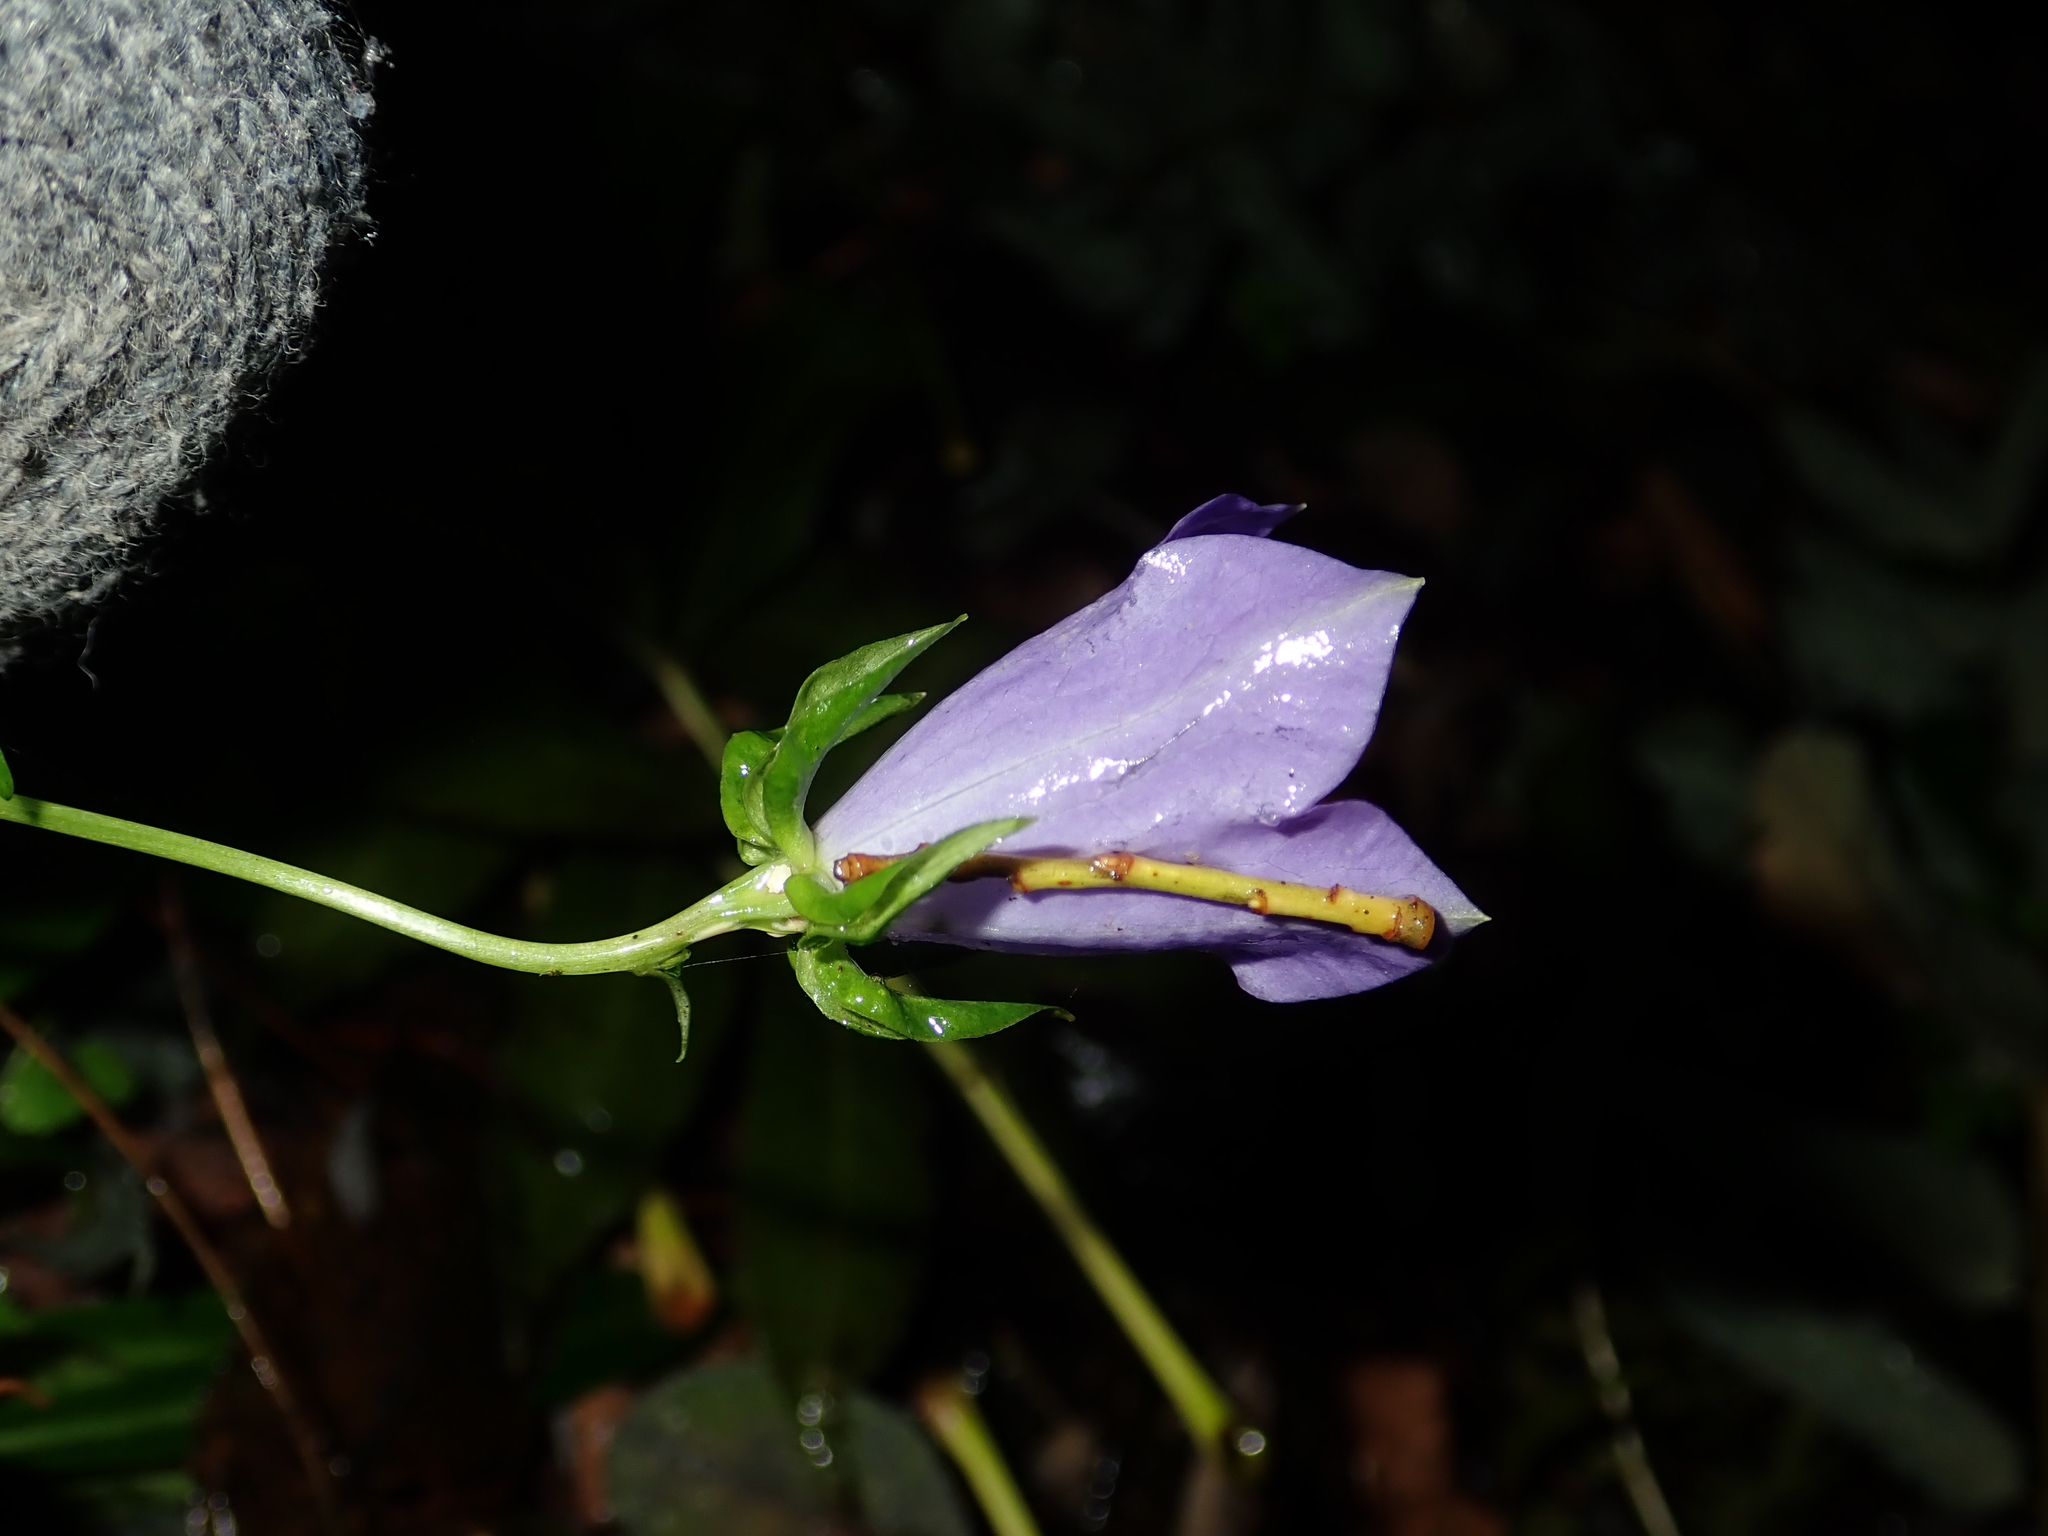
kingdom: Plantae
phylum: Tracheophyta
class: Magnoliopsida
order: Asterales
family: Campanulaceae
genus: Campanula
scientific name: Campanula persicifolia
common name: Peach-leaved bellflower
